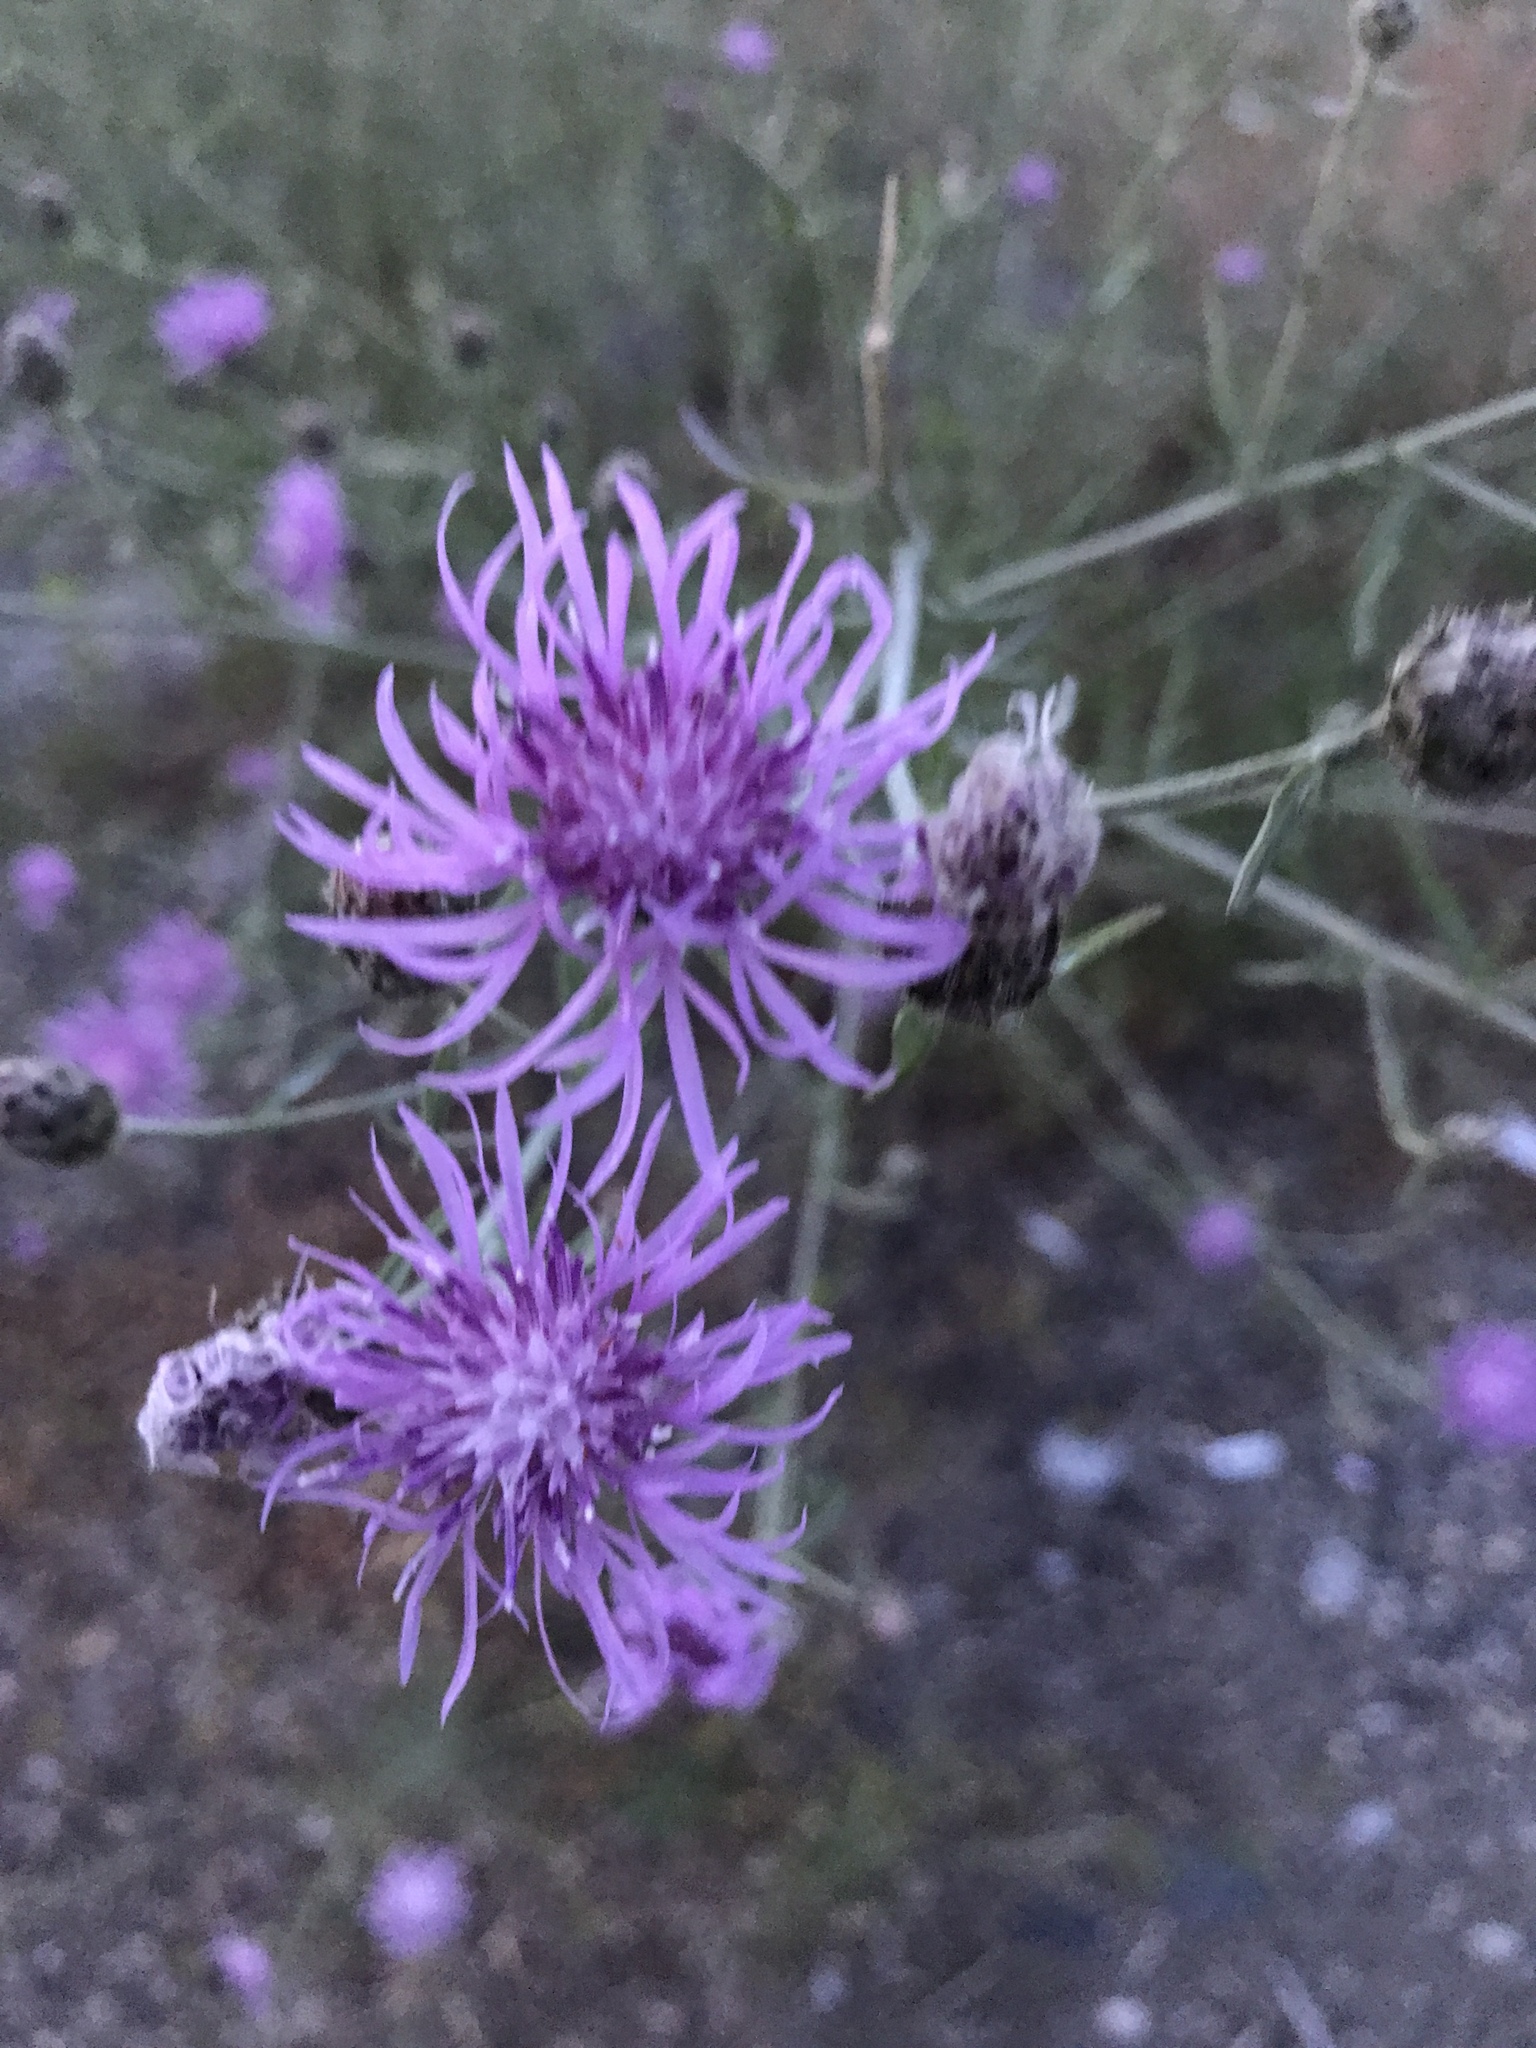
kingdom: Plantae
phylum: Tracheophyta
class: Magnoliopsida
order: Asterales
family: Asteraceae
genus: Centaurea
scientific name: Centaurea stoebe
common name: Spotted knapweed
